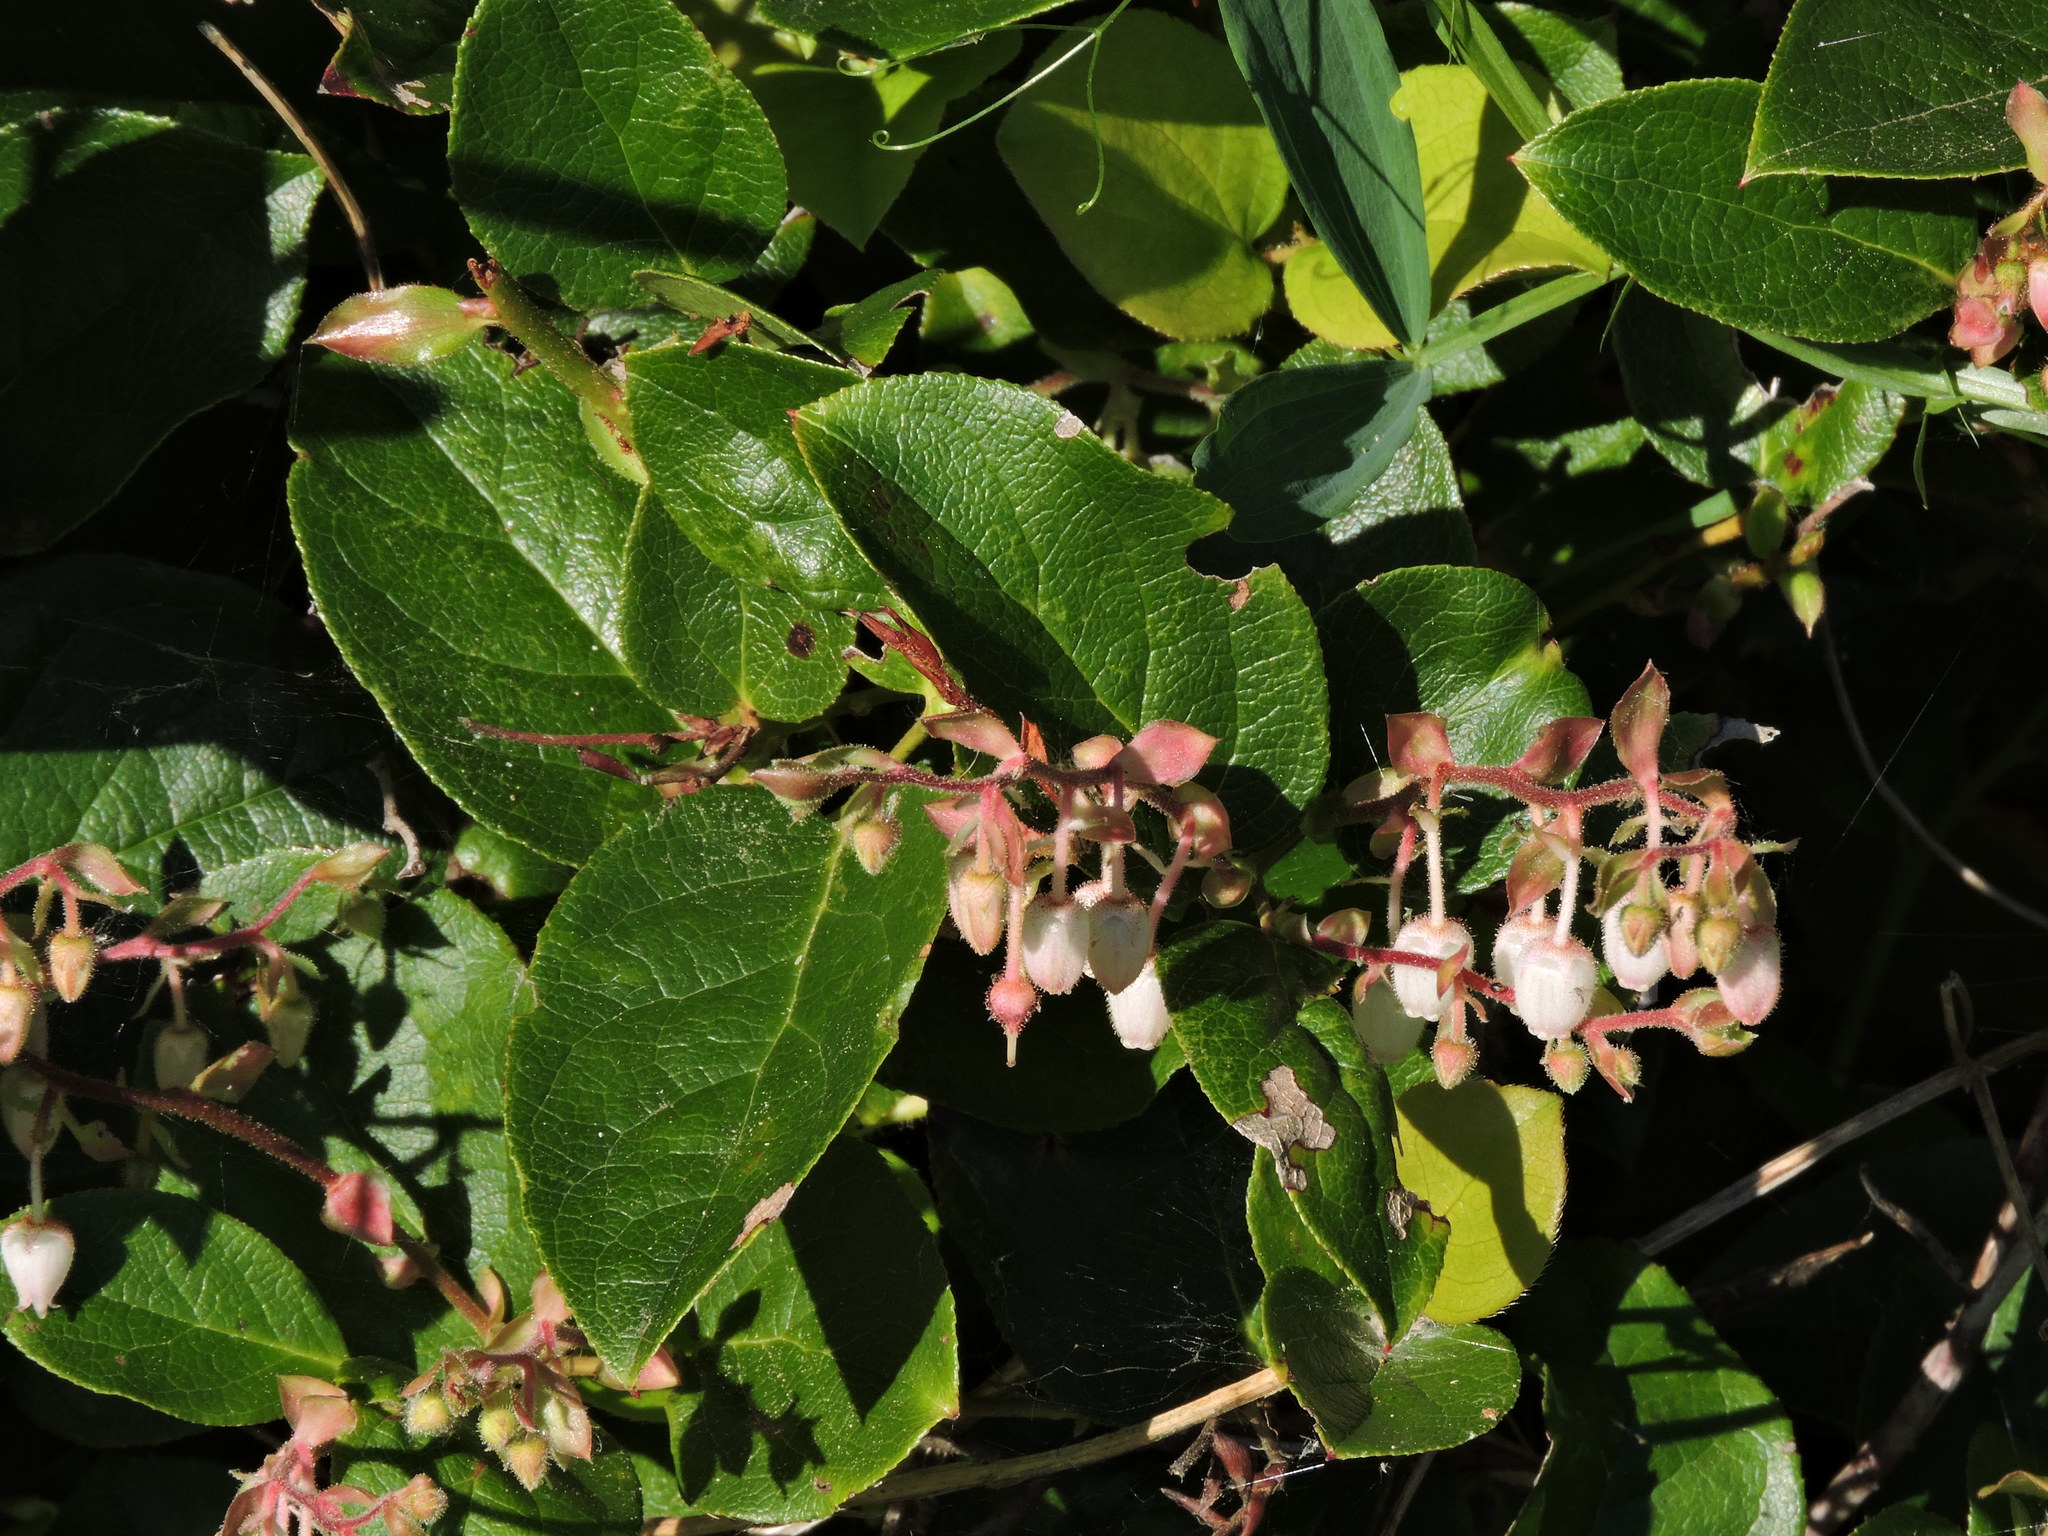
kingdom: Plantae
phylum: Tracheophyta
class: Magnoliopsida
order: Ericales
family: Ericaceae
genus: Gaultheria
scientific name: Gaultheria shallon
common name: Shallon
